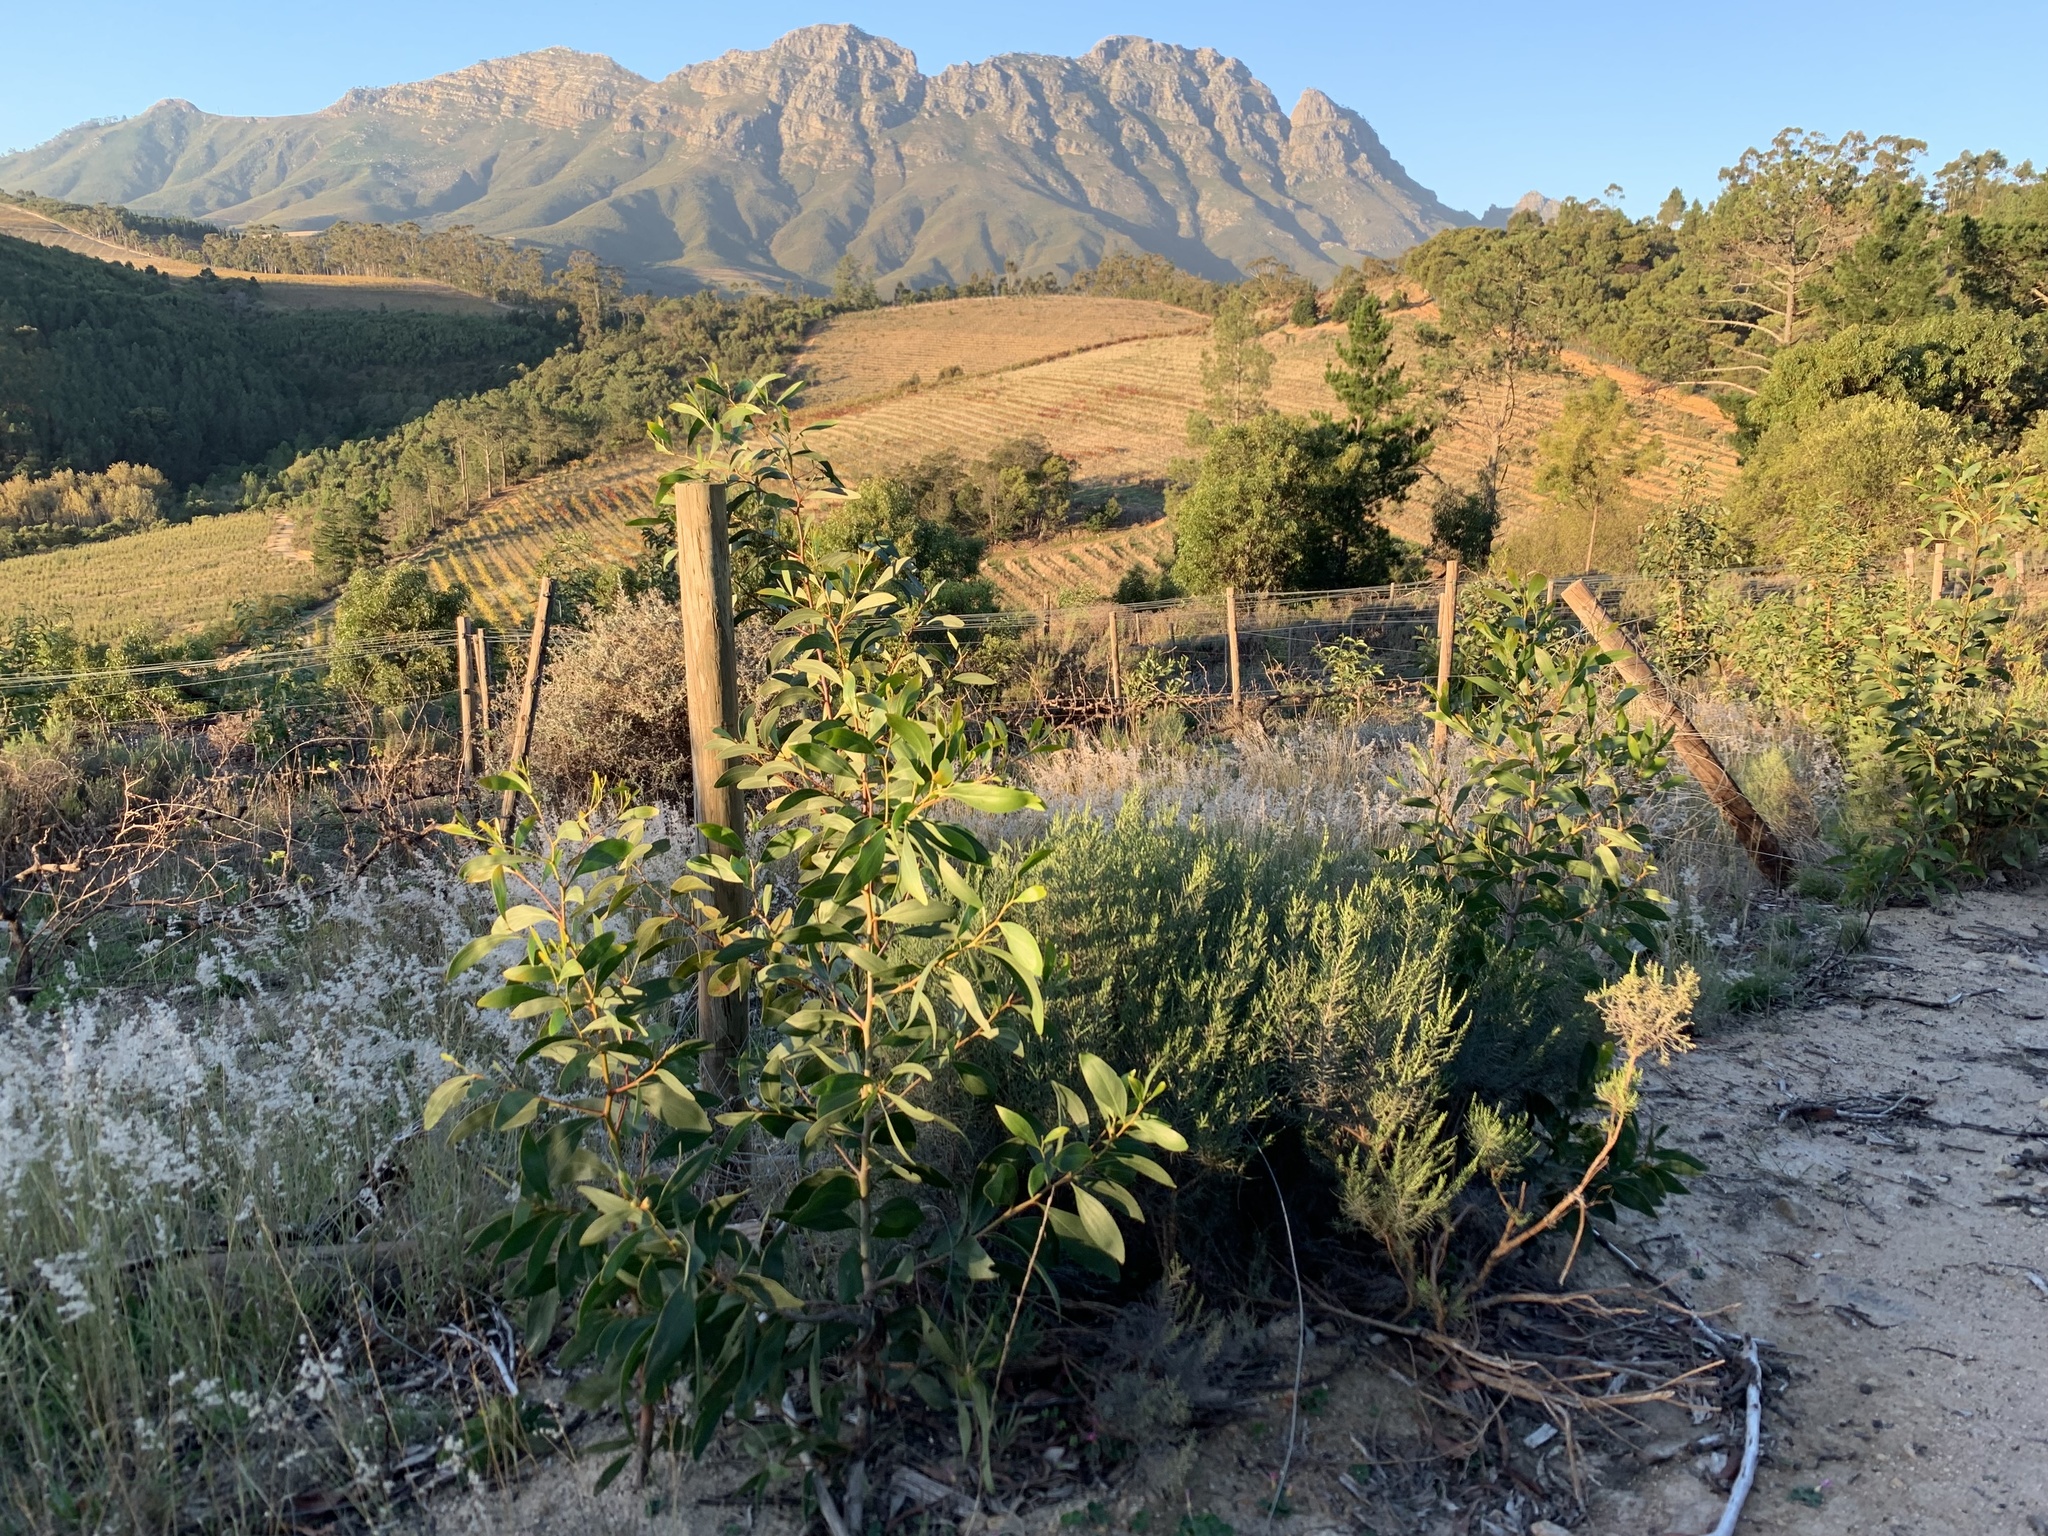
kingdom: Plantae
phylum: Tracheophyta
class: Magnoliopsida
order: Fabales
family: Fabaceae
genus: Acacia
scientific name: Acacia pycnantha
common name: Golden wattle
